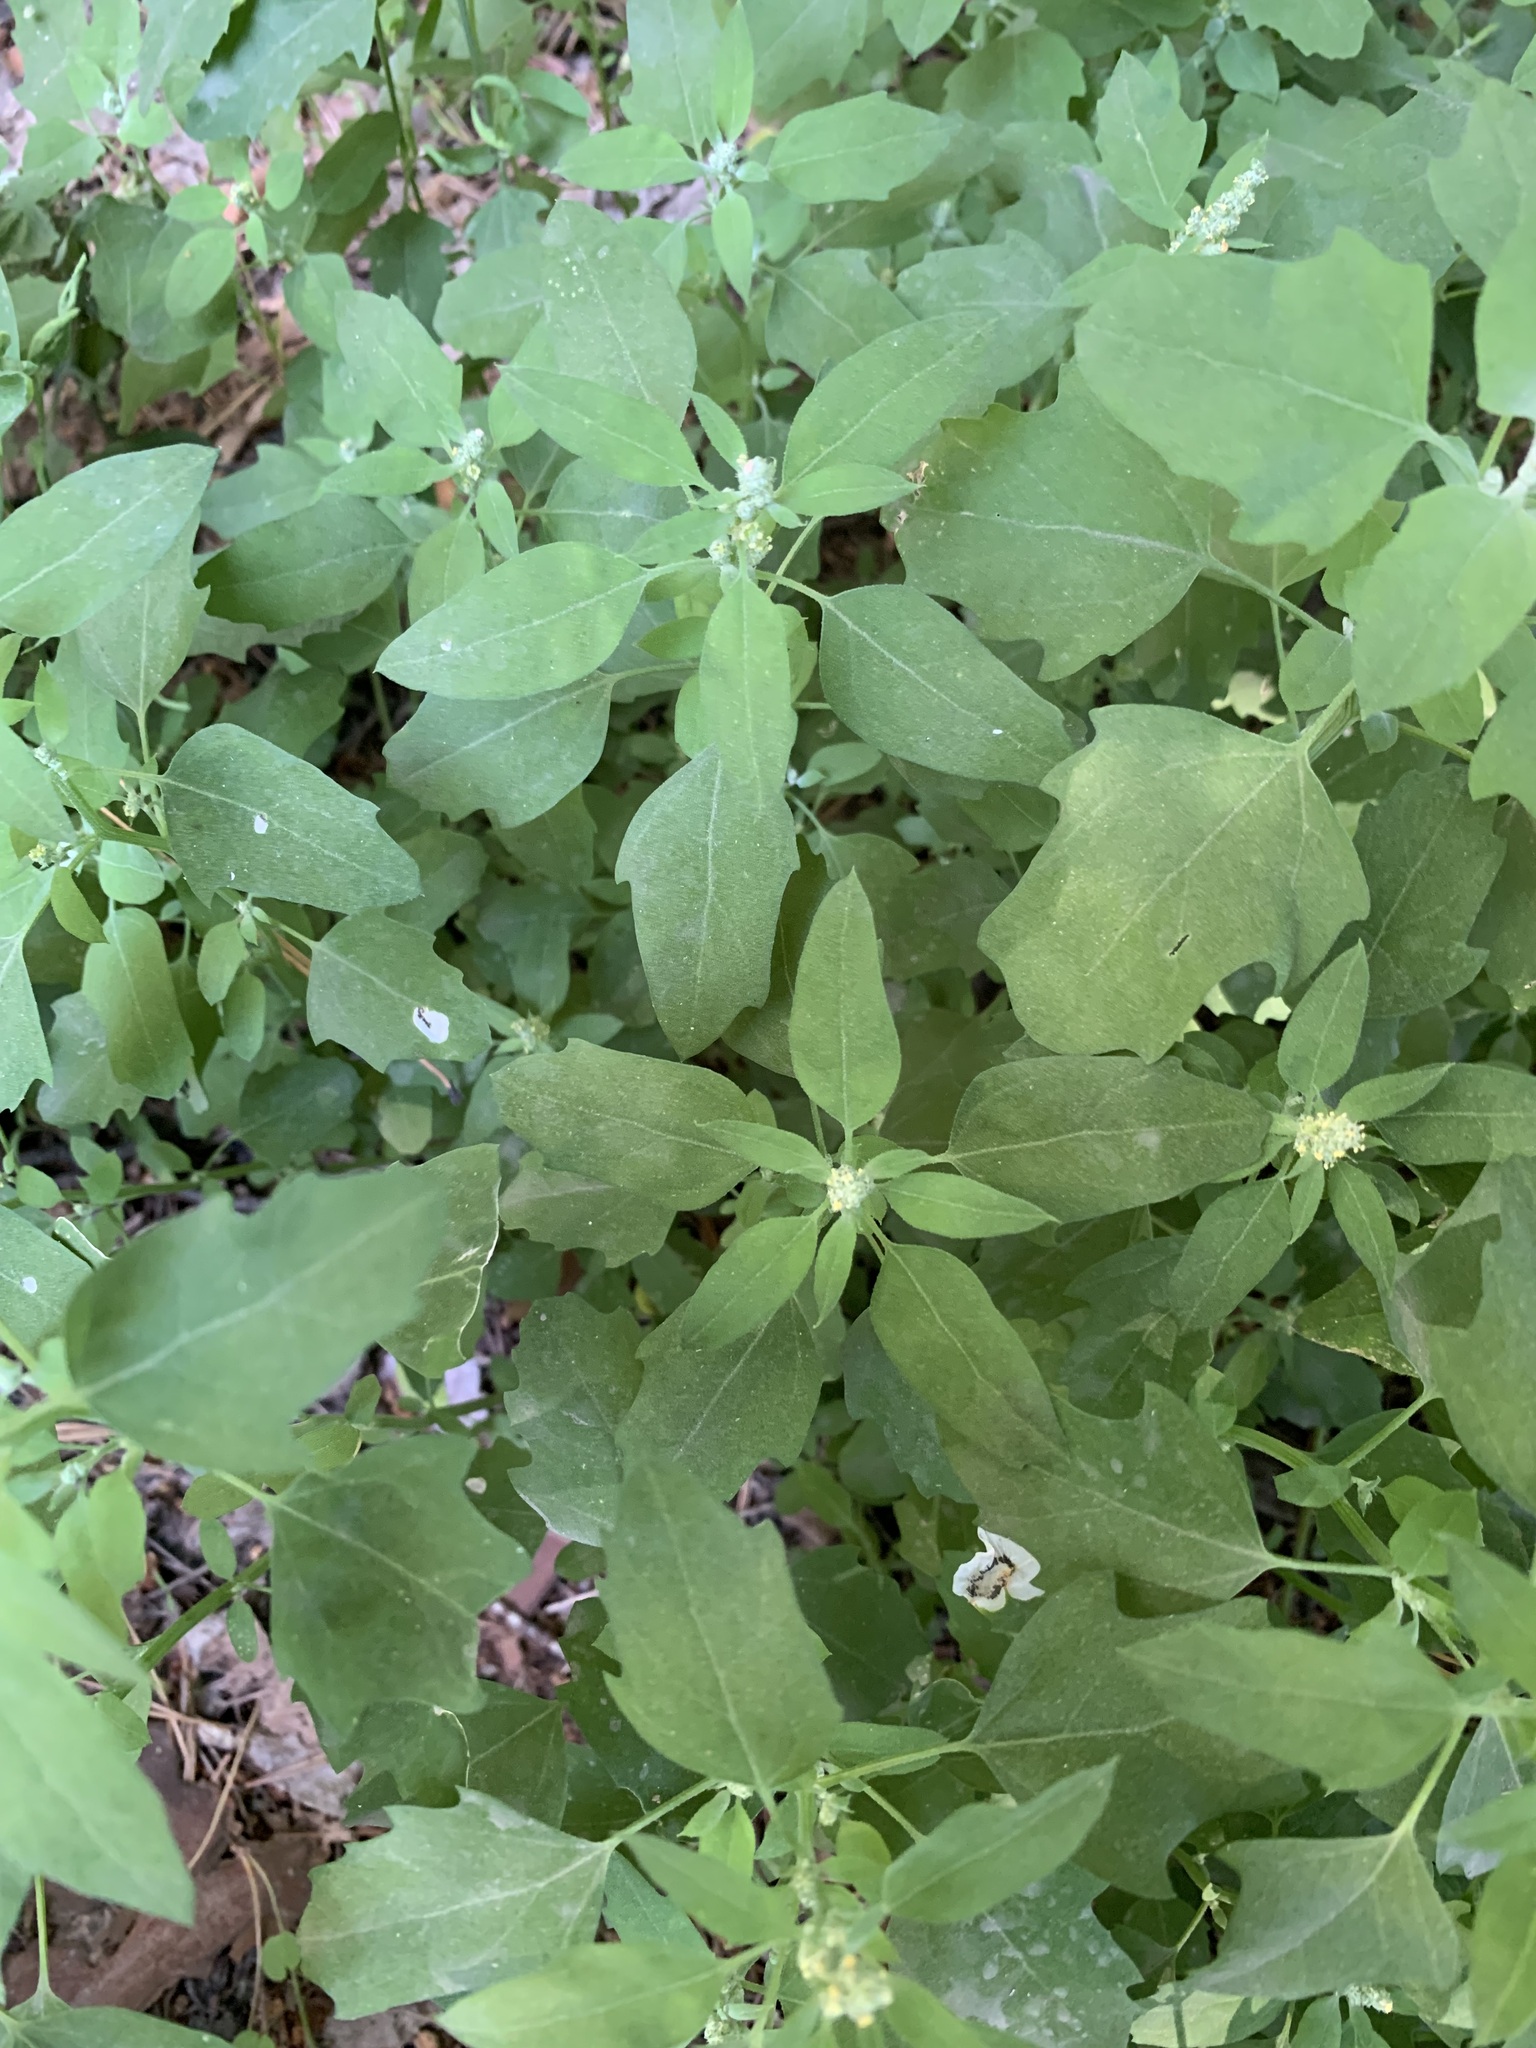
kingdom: Plantae
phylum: Tracheophyta
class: Magnoliopsida
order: Caryophyllales
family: Amaranthaceae
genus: Chenopodium
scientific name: Chenopodium album
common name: Fat-hen
